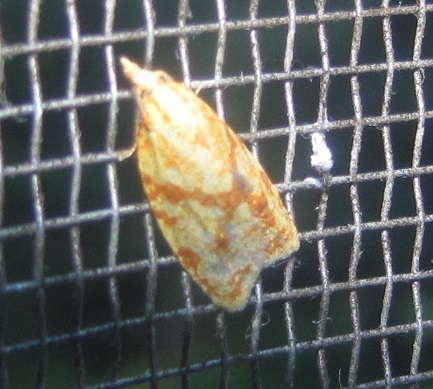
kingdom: Animalia
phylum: Arthropoda
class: Insecta
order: Lepidoptera
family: Tortricidae
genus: Sparganothis
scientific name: Sparganothis sulfureana
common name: Sparganothis fruitworm moth
